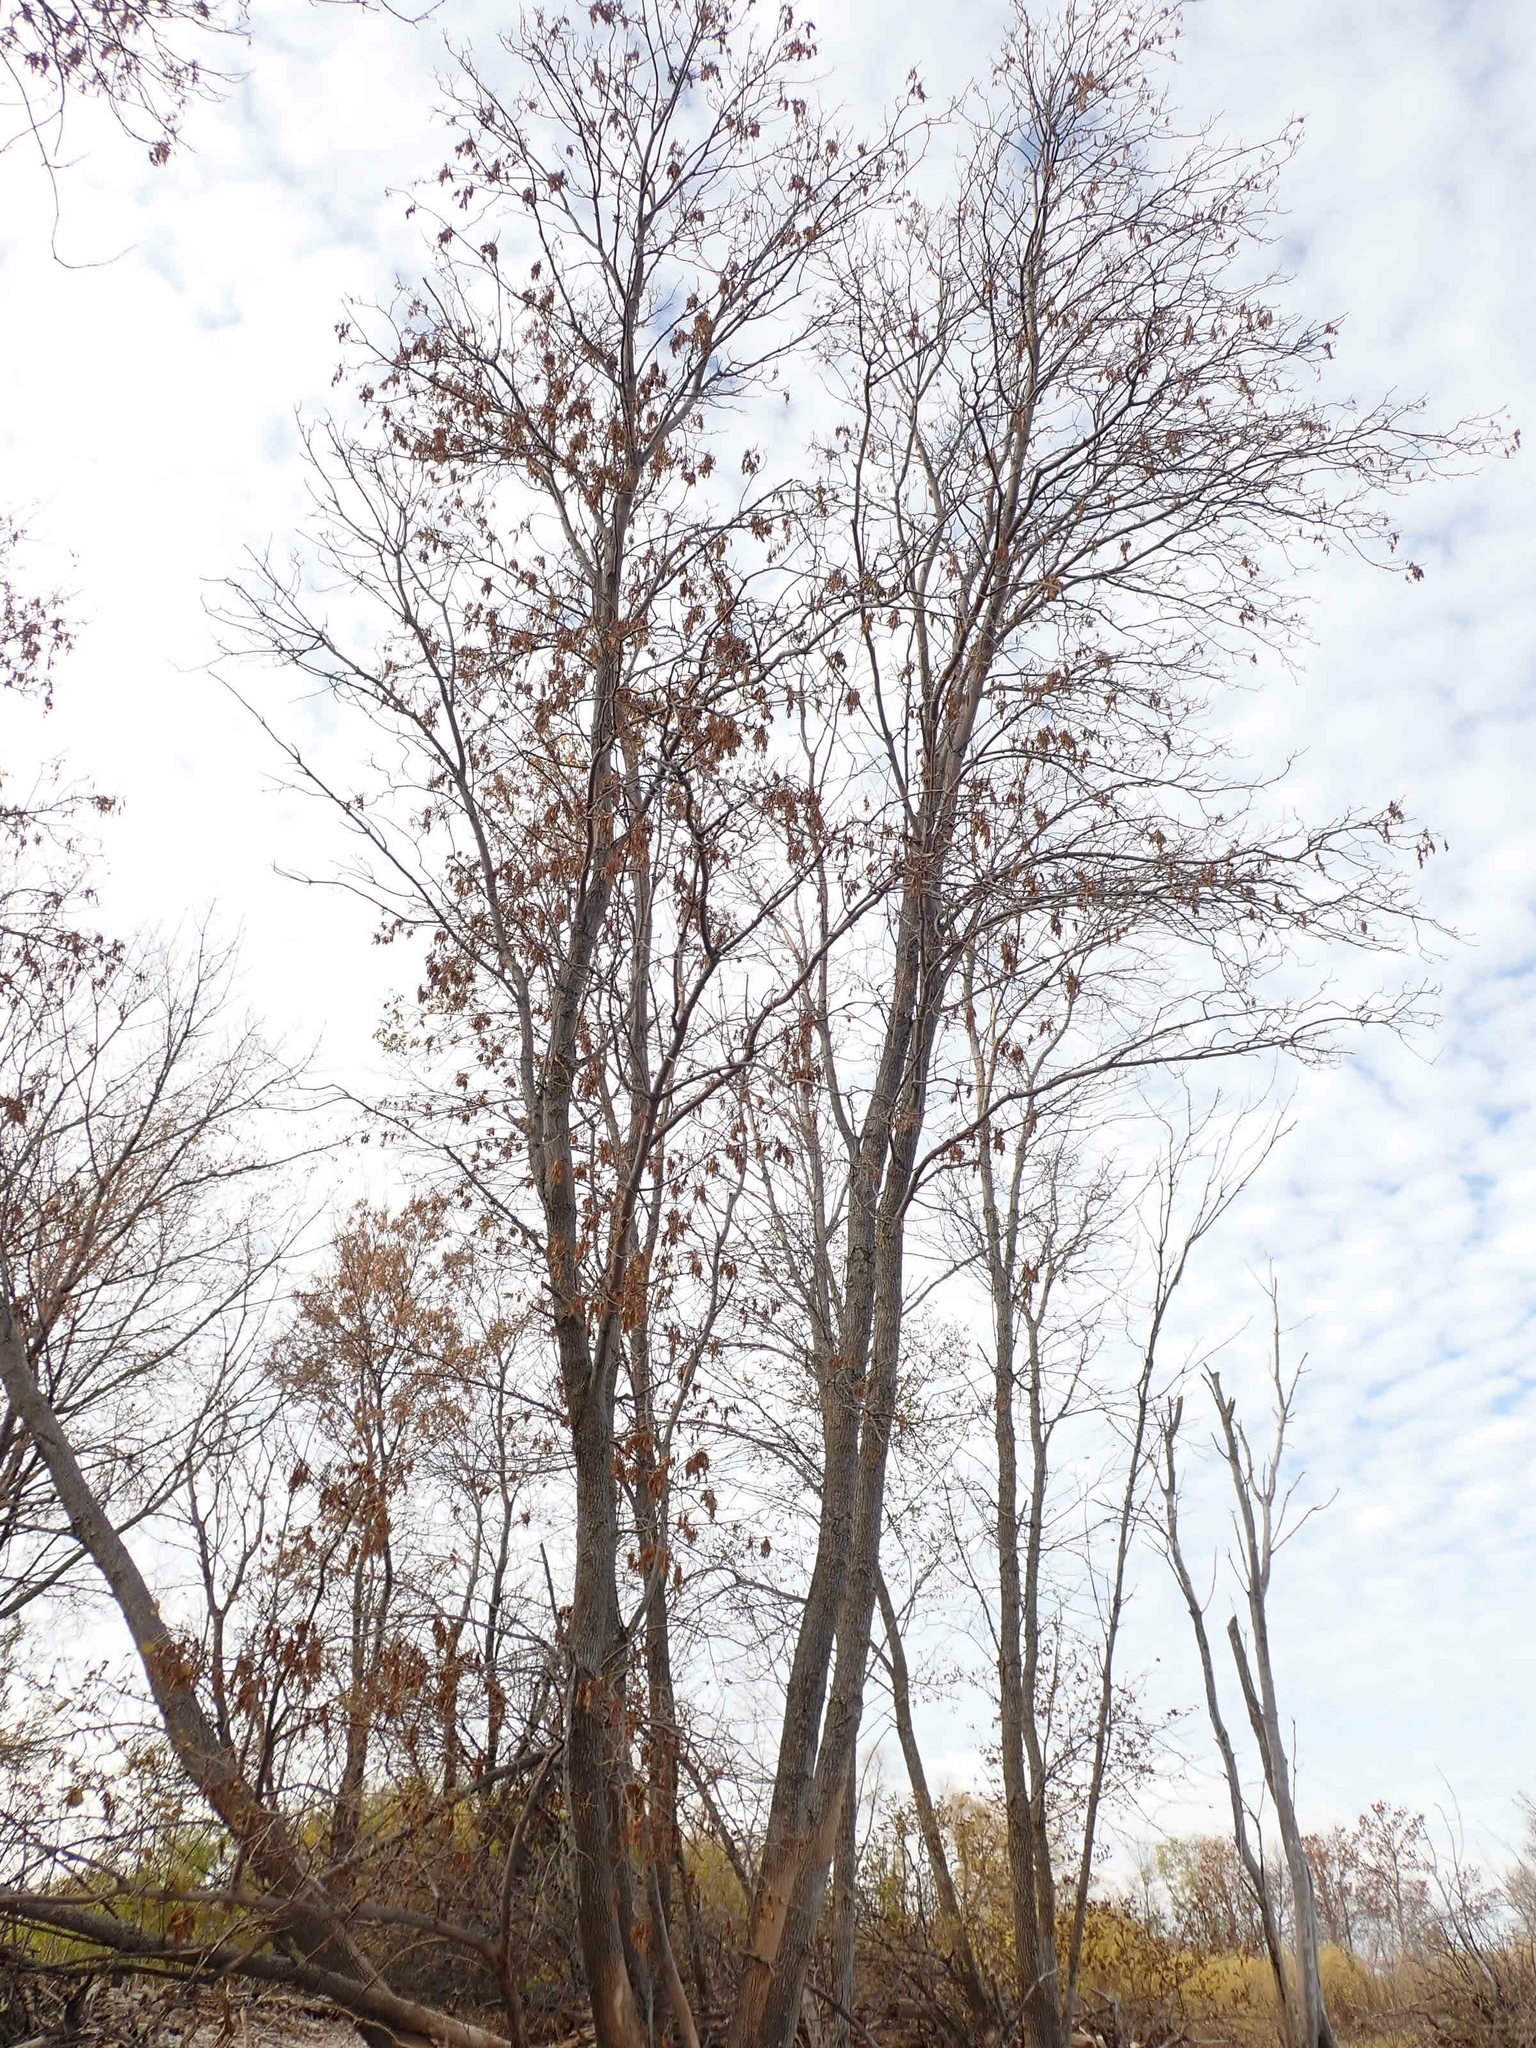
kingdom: Plantae
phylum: Tracheophyta
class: Magnoliopsida
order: Lamiales
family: Oleaceae
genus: Fraxinus
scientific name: Fraxinus pennsylvanica
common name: Green ash
